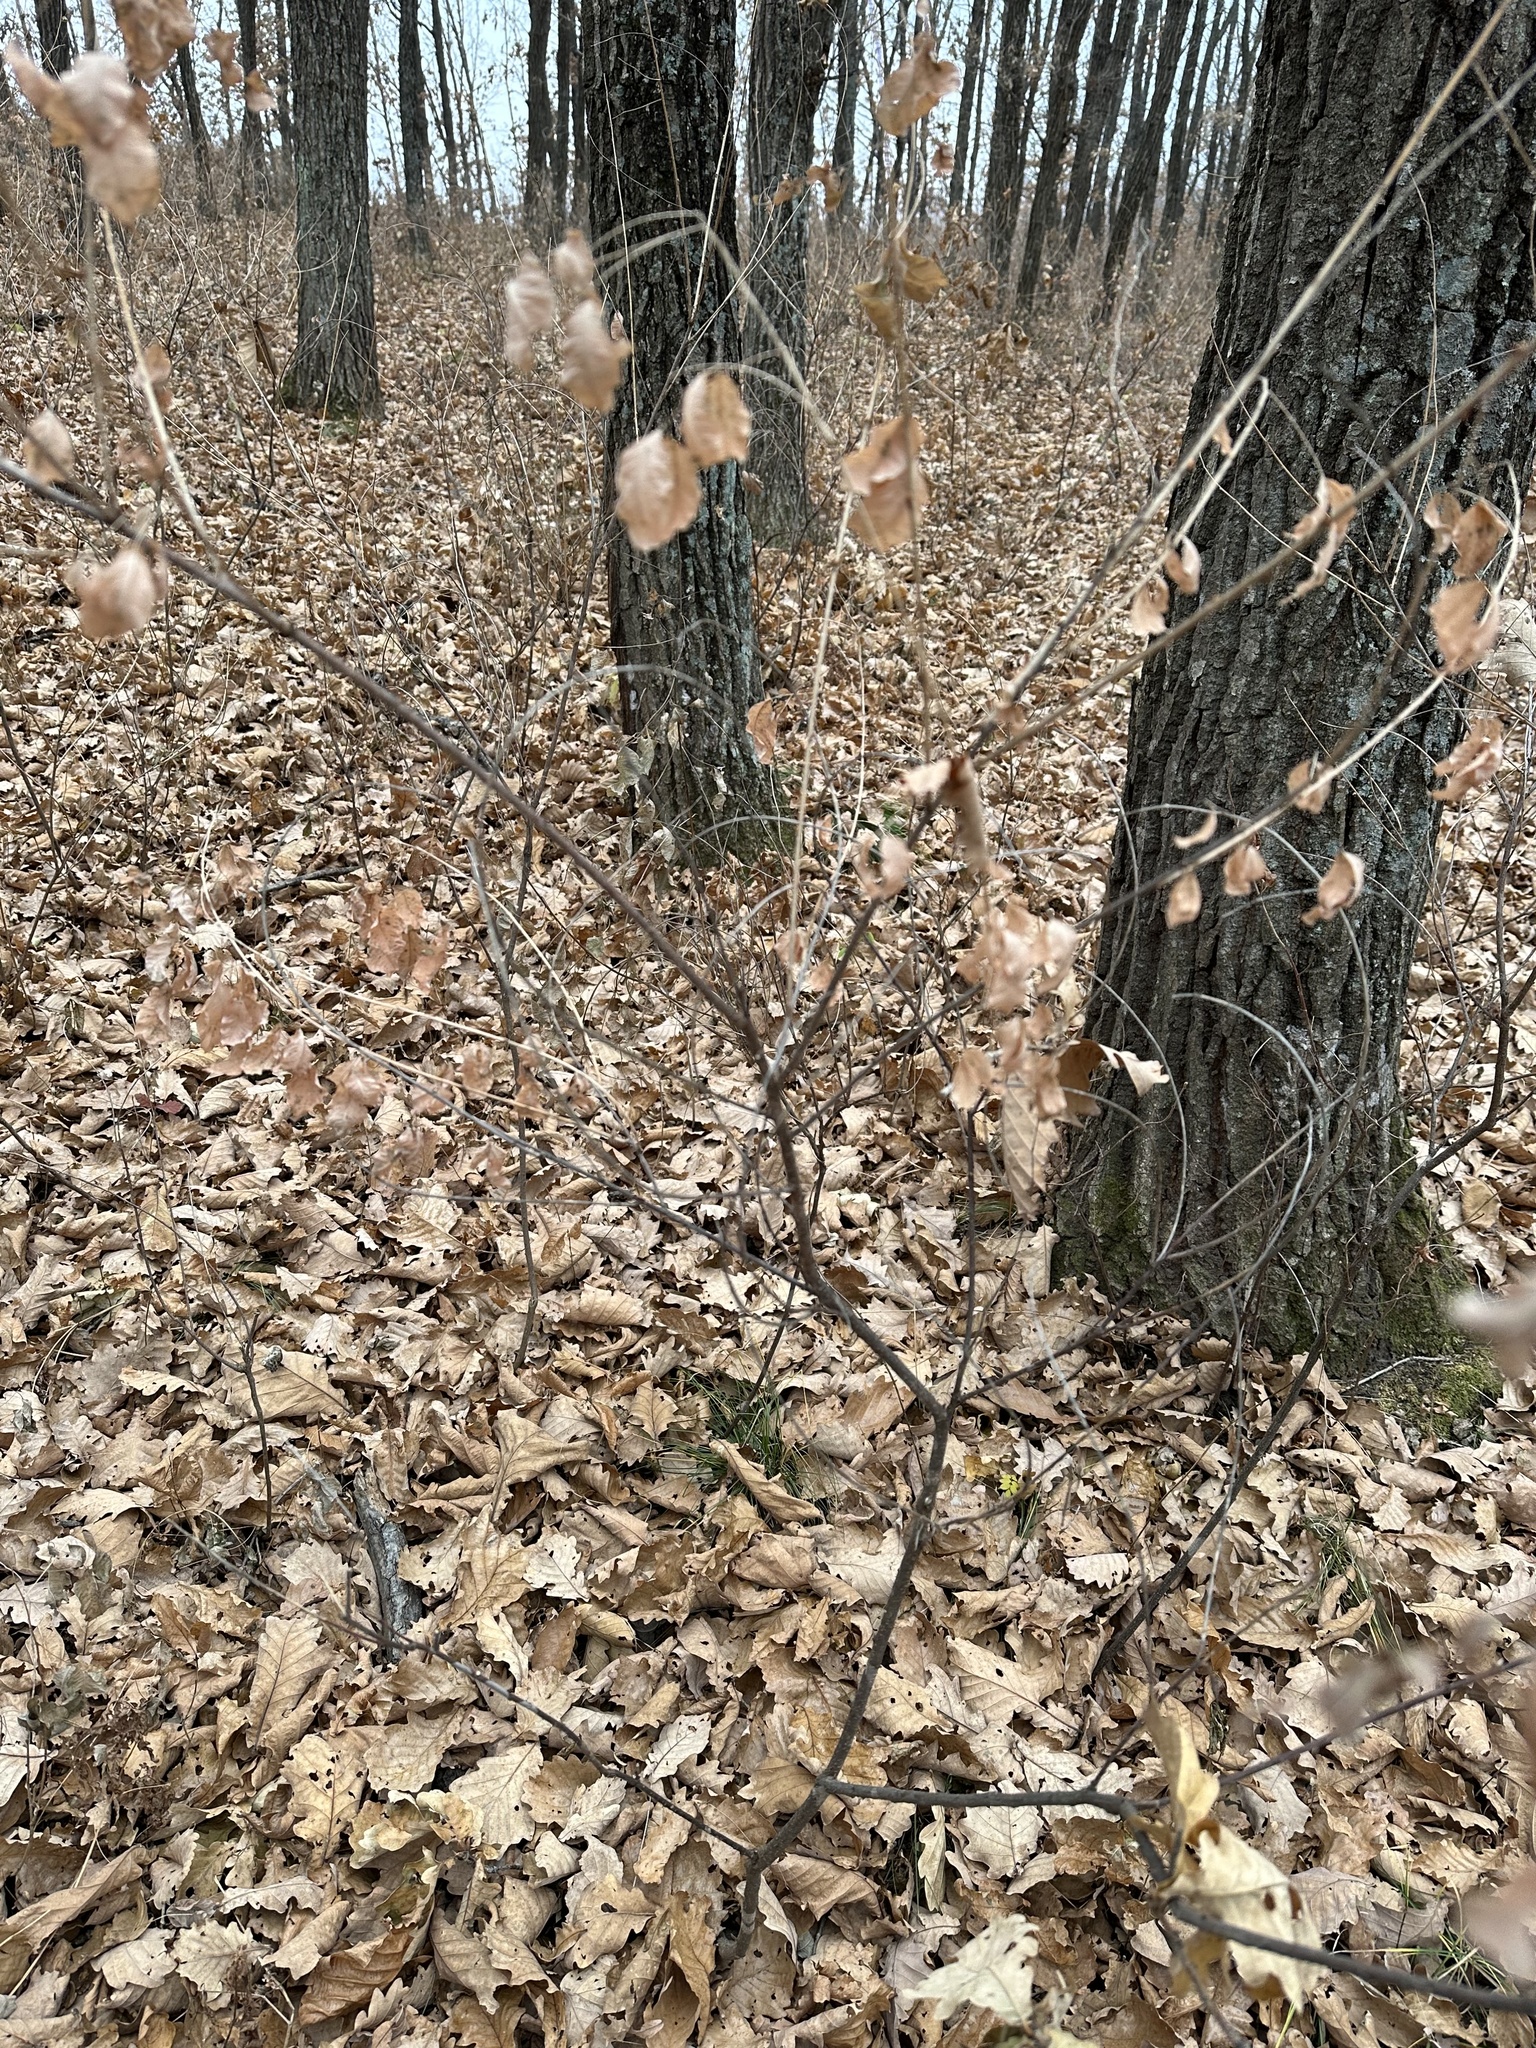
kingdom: Plantae
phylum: Tracheophyta
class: Magnoliopsida
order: Fabales
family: Fabaceae
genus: Lespedeza
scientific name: Lespedeza bicolor
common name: Shrub lespedeza
